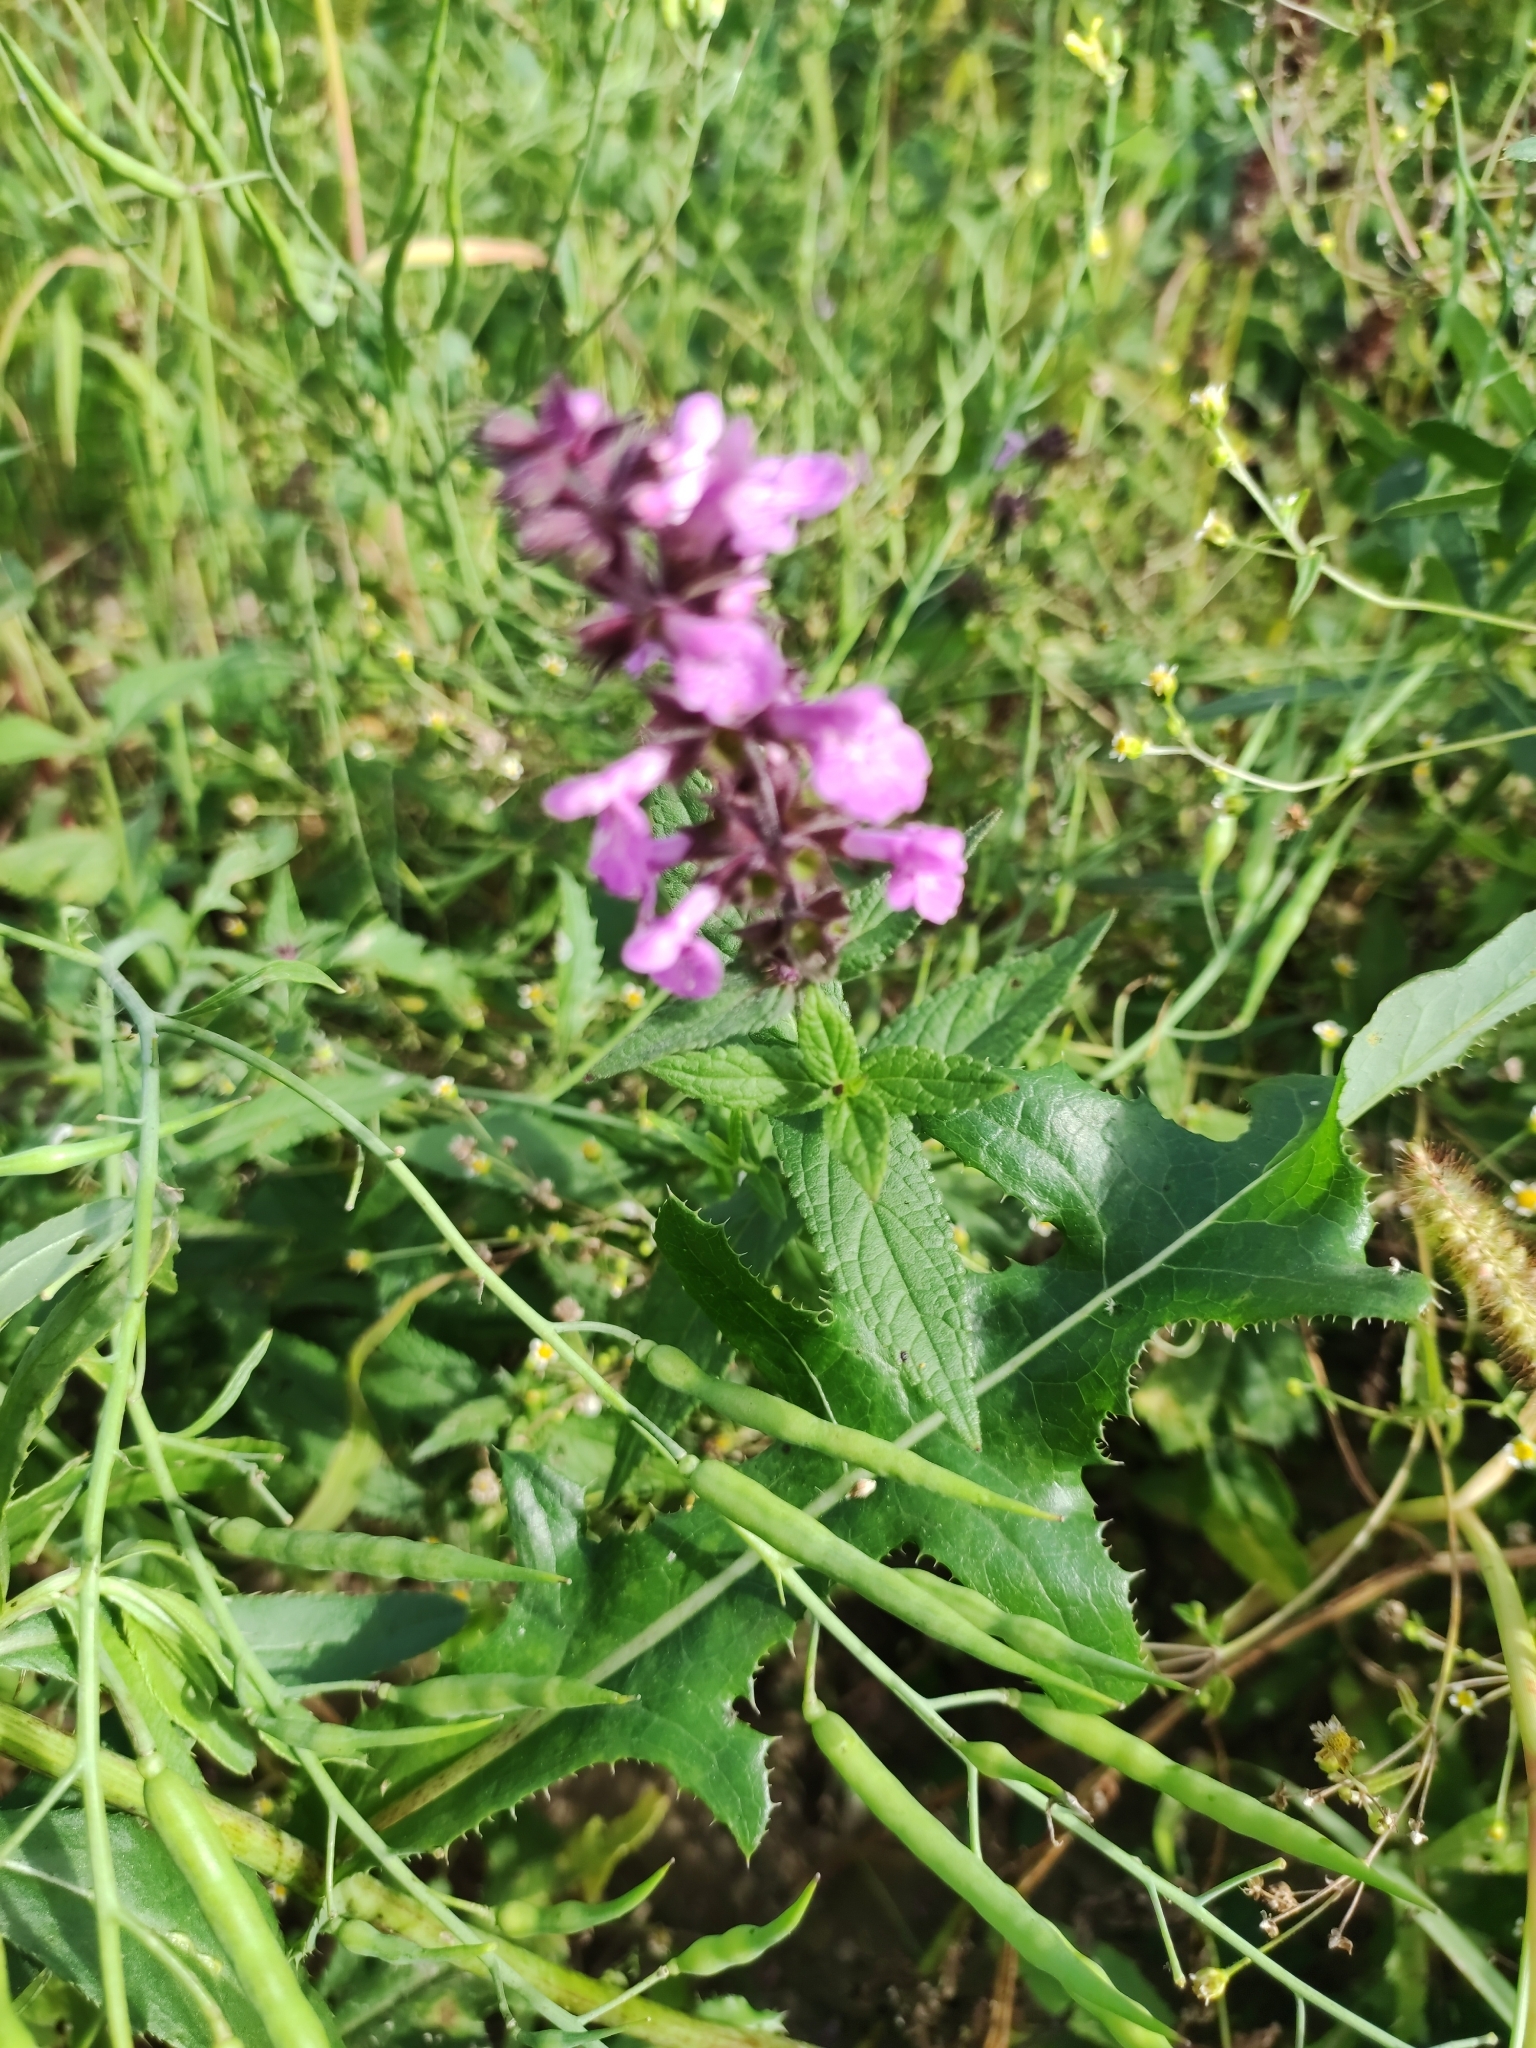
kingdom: Plantae
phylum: Tracheophyta
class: Magnoliopsida
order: Lamiales
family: Lamiaceae
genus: Stachys
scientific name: Stachys palustris
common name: Marsh woundwort
